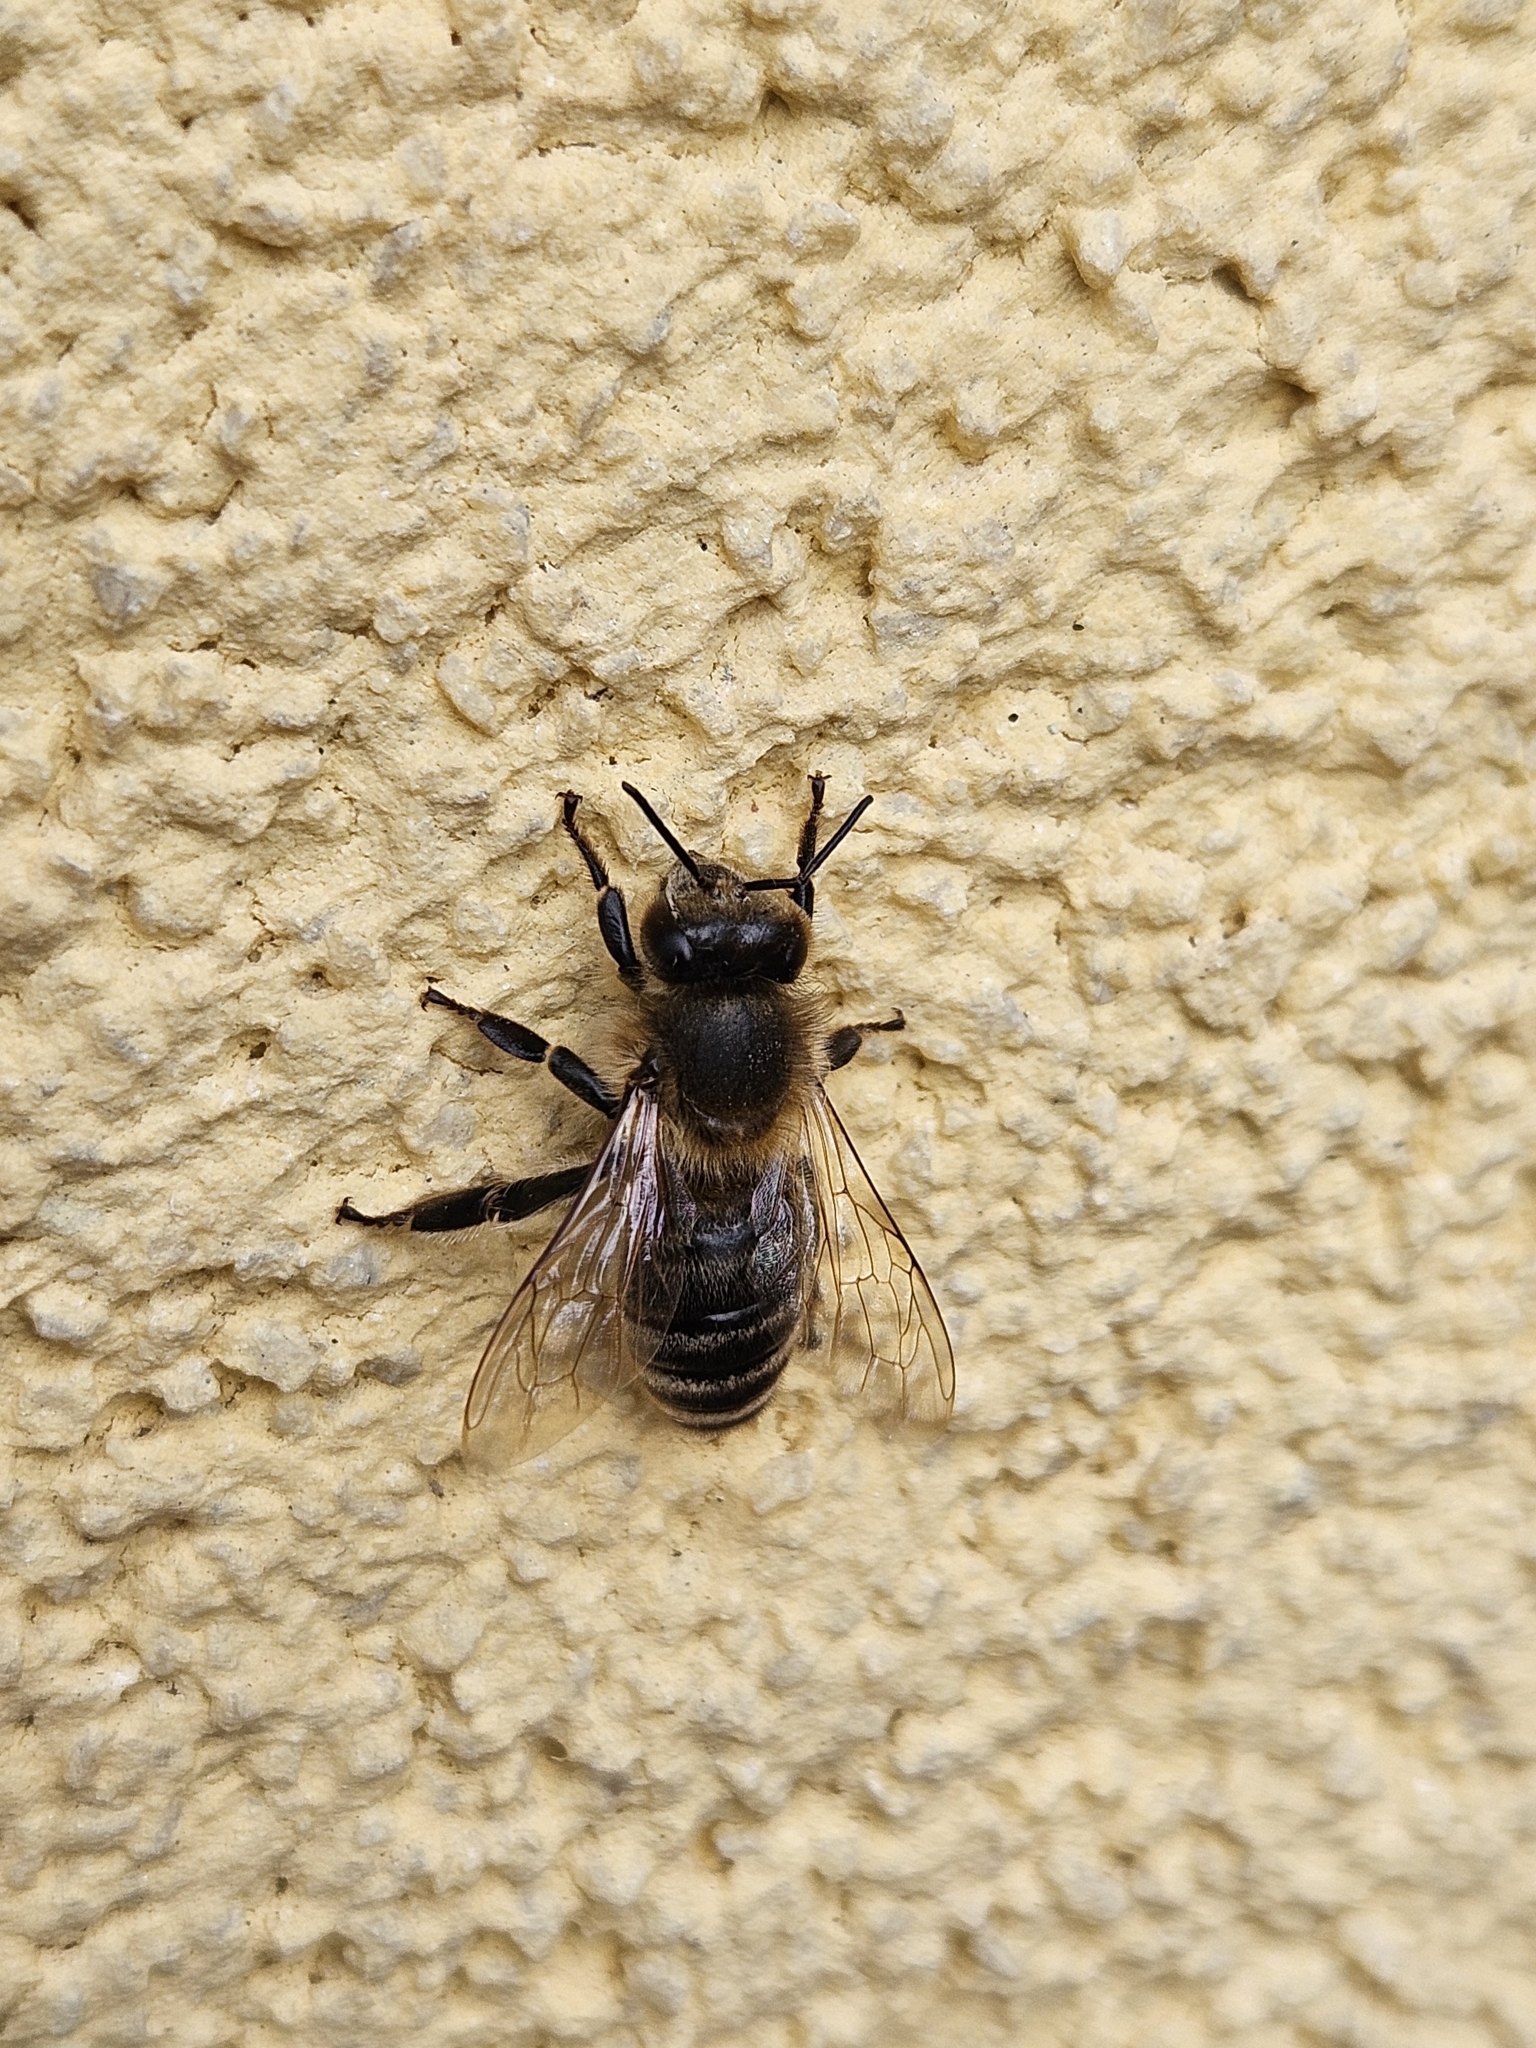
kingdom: Animalia
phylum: Arthropoda
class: Insecta
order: Hymenoptera
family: Apidae
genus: Apis
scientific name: Apis mellifera
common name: Honey bee
